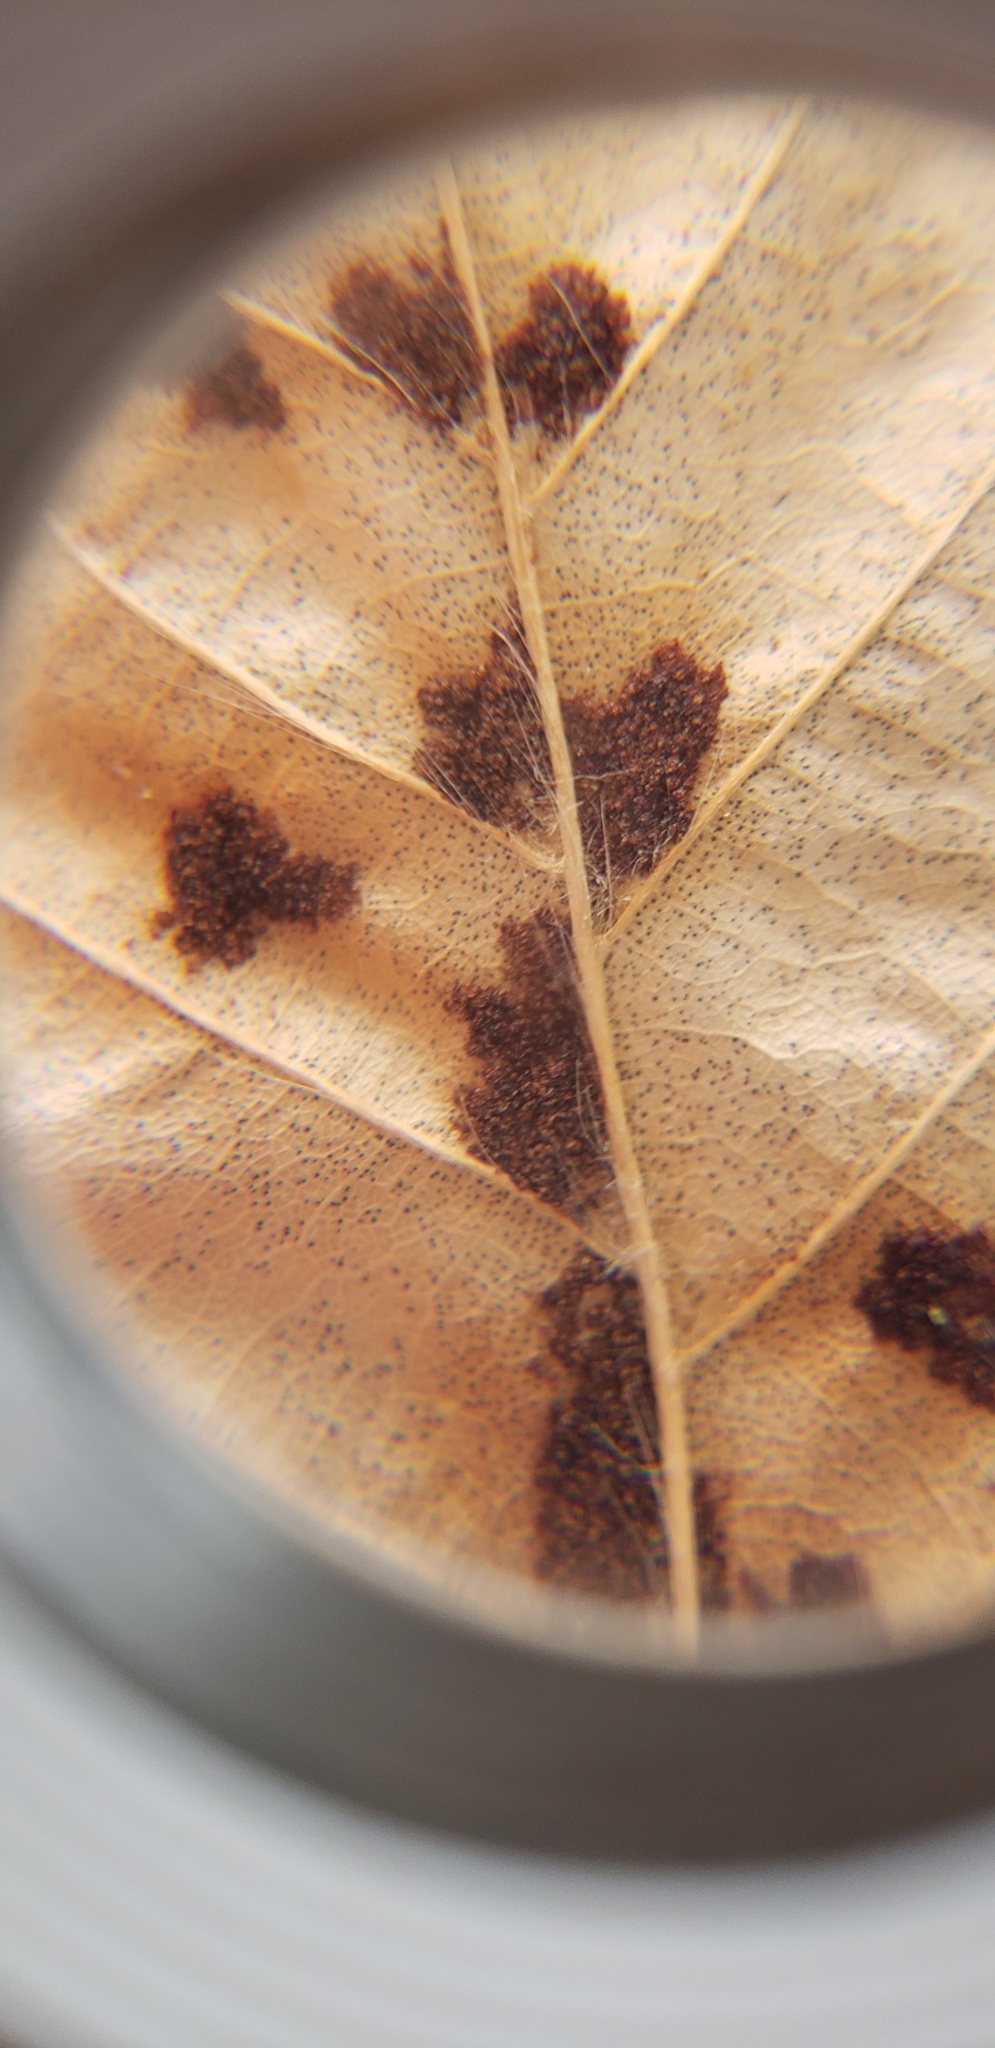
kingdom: Animalia
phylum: Arthropoda
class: Arachnida
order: Trombidiformes
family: Eriophyidae
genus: Acalitus
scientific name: Acalitus
